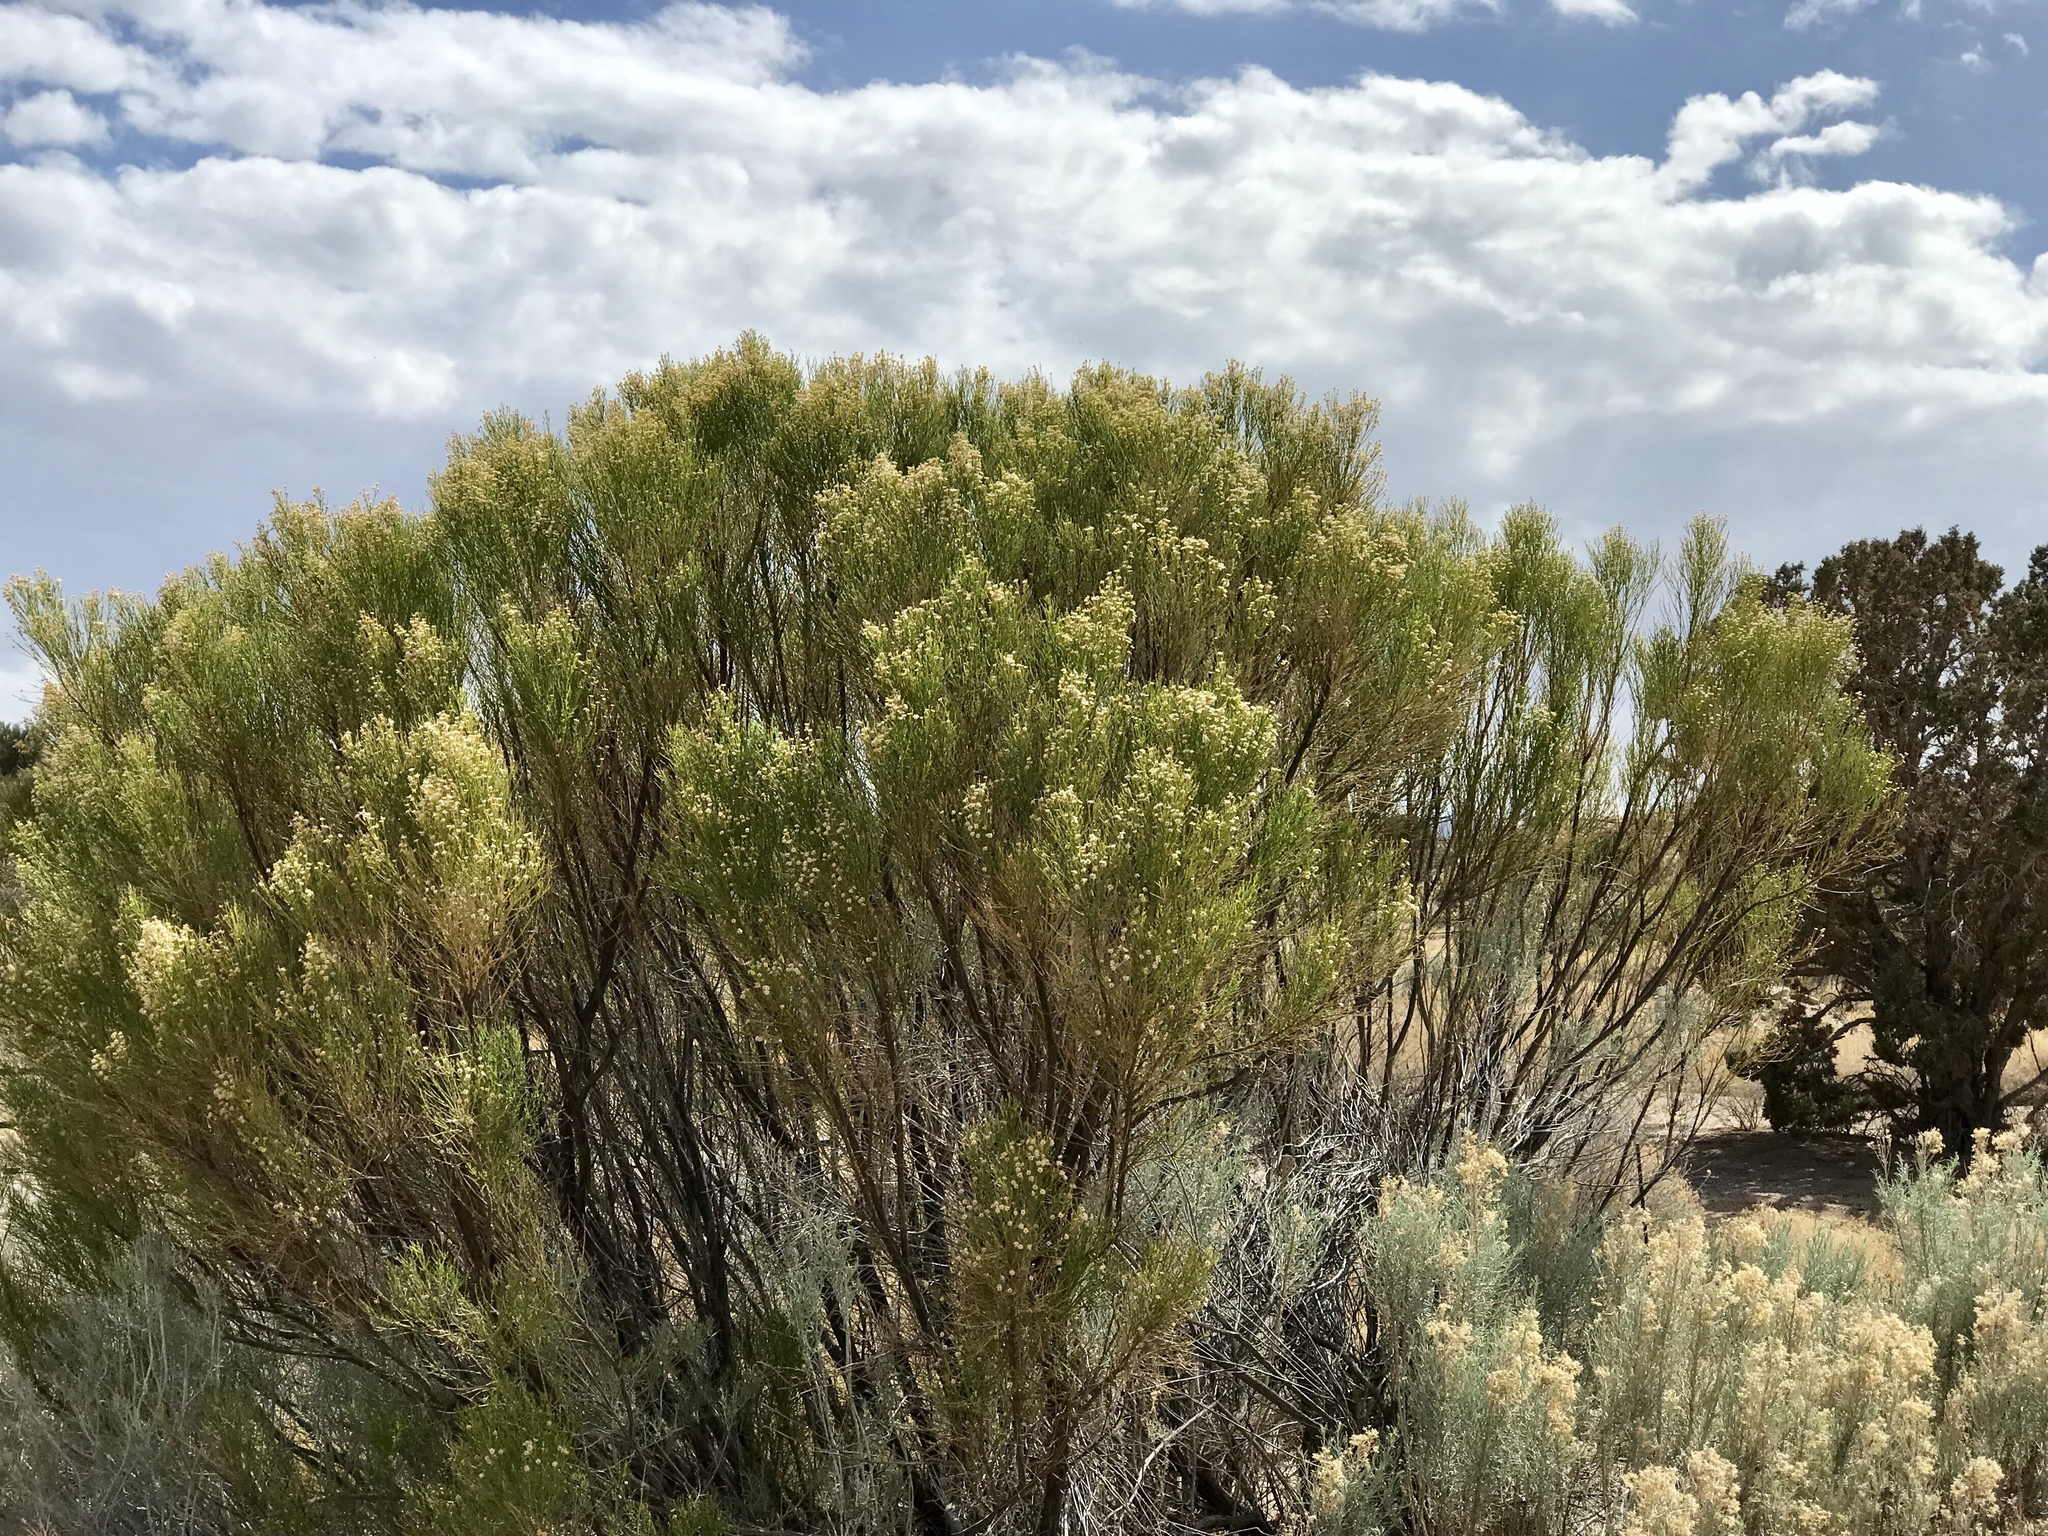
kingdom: Plantae
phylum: Tracheophyta
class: Magnoliopsida
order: Asterales
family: Asteraceae
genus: Baccharis
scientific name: Baccharis sarothroides
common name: Desert-broom
